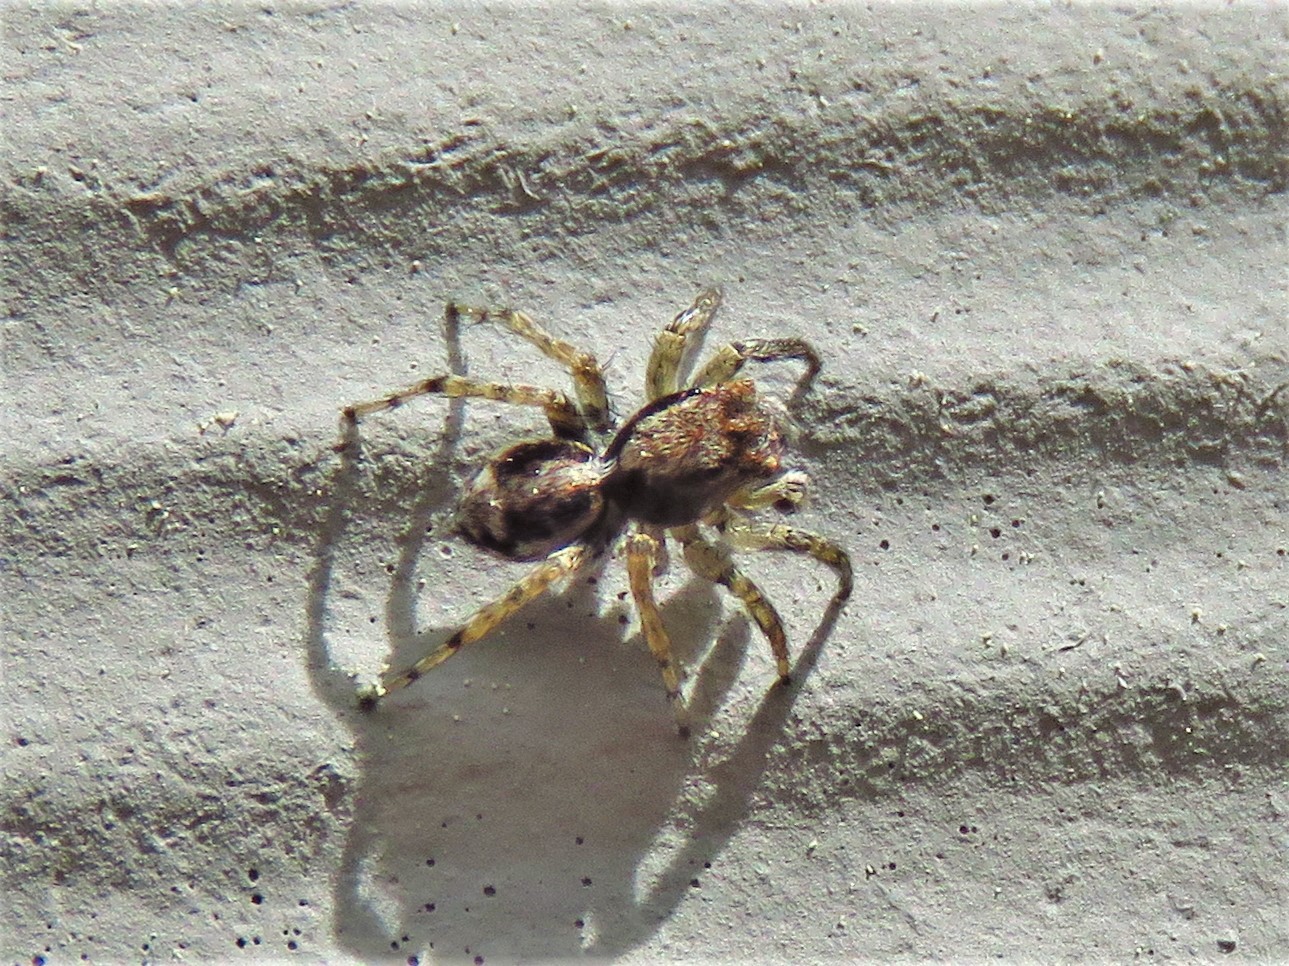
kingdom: Animalia
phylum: Arthropoda
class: Arachnida
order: Araneae
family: Salticidae
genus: Naphrys
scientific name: Naphrys pulex
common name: Flea jumping spider
